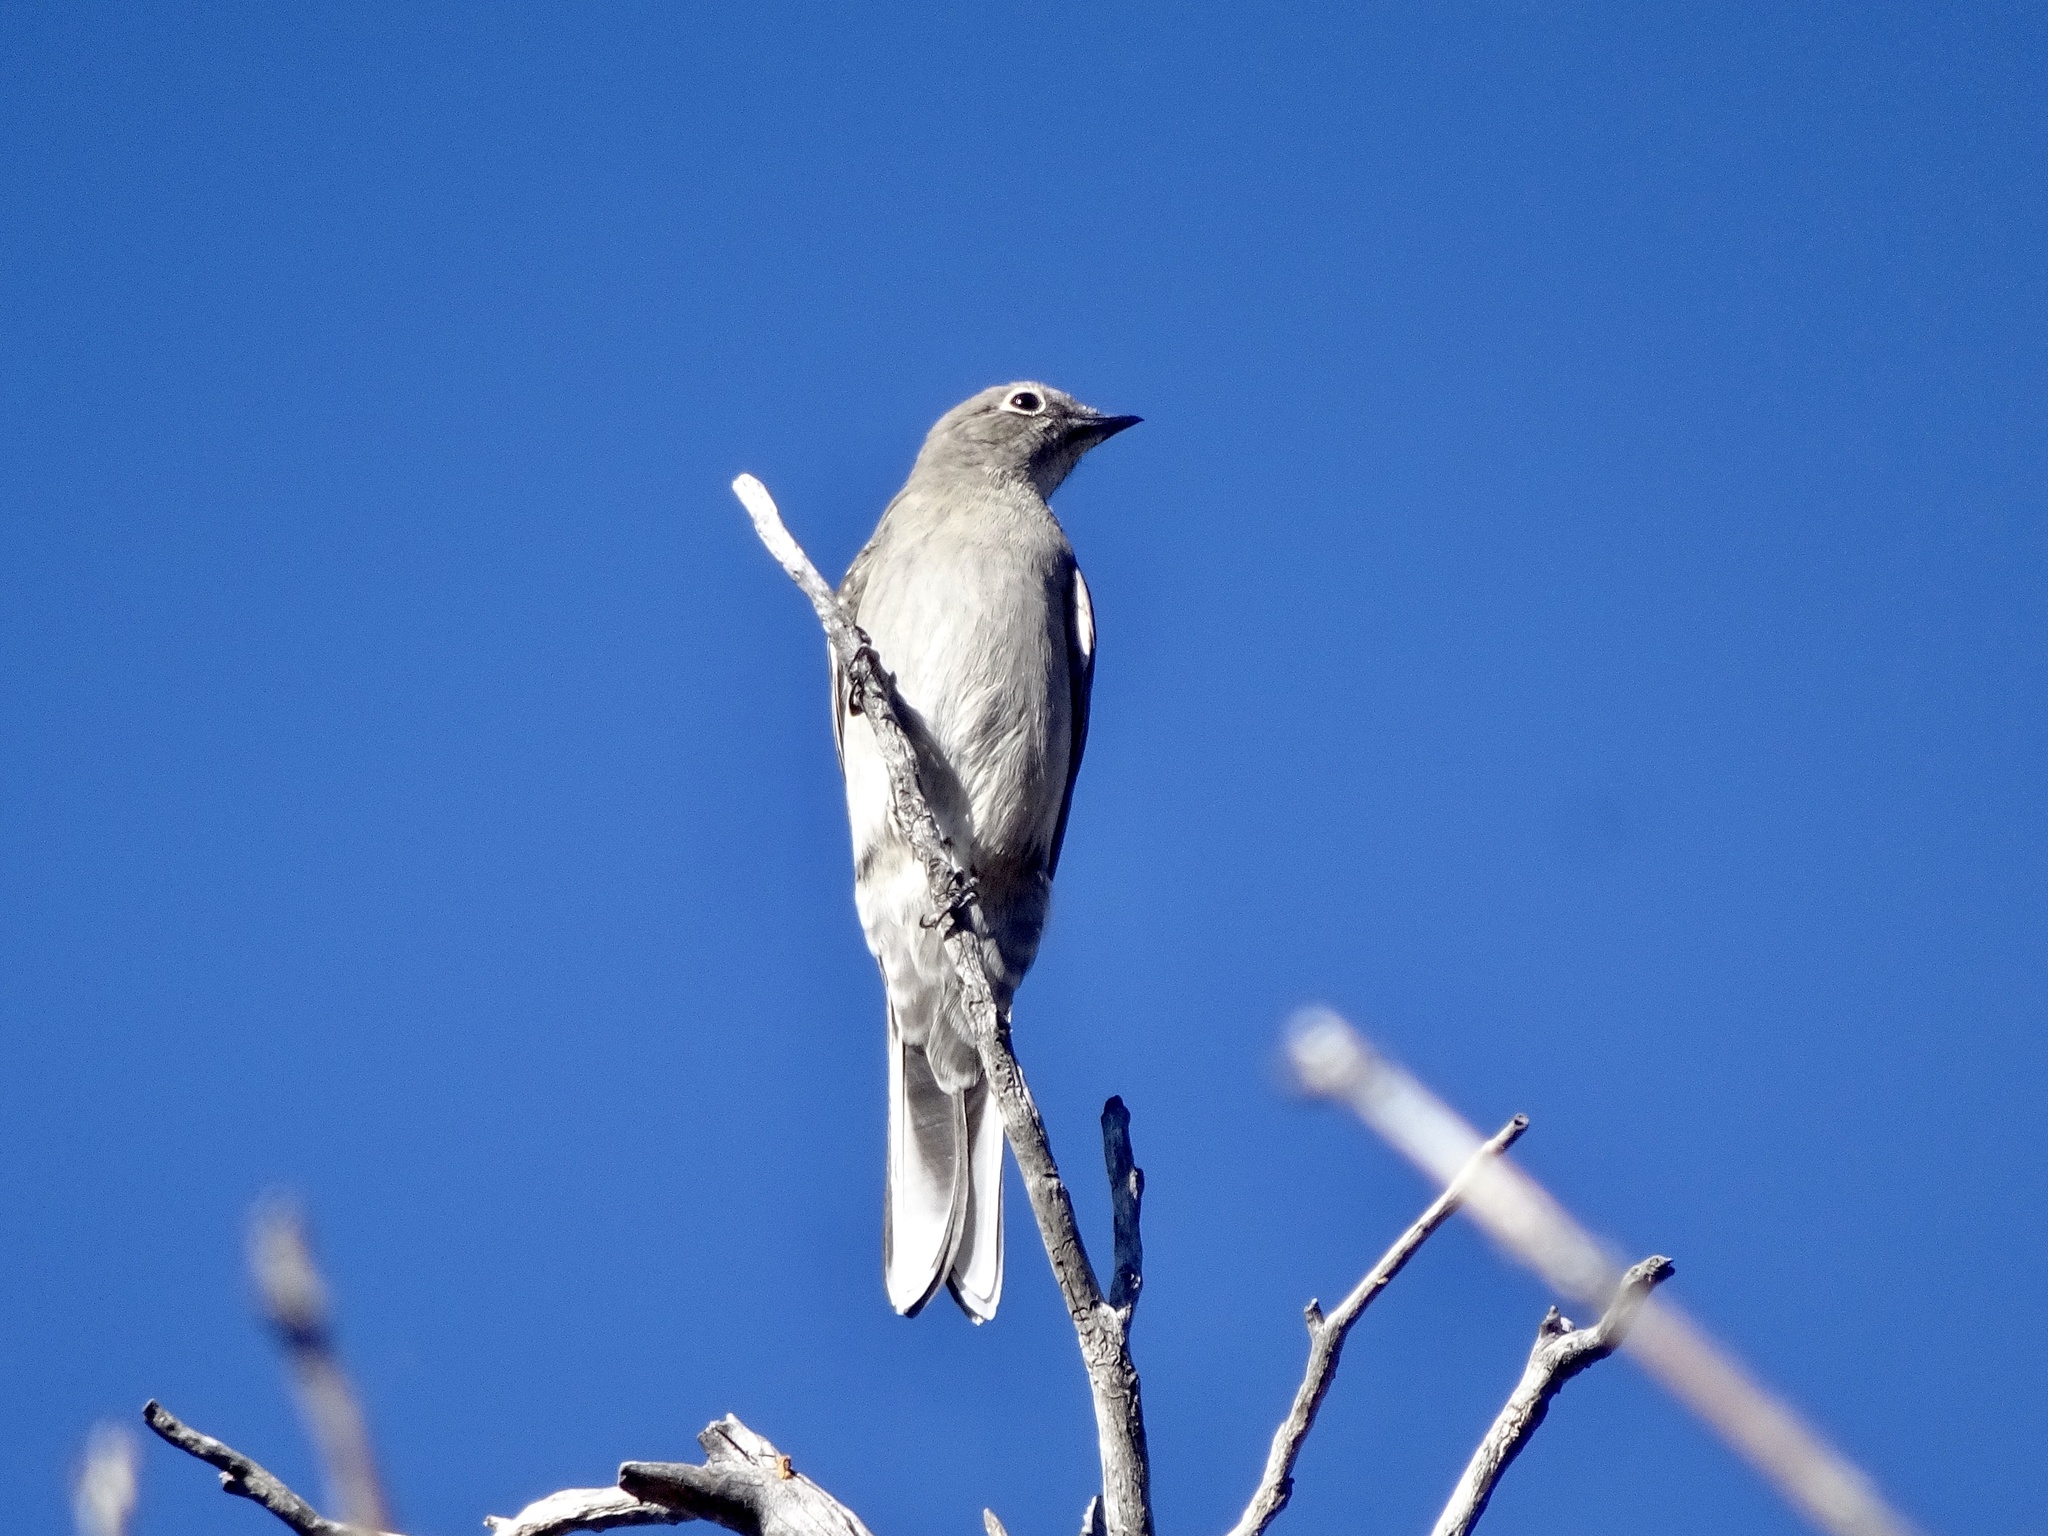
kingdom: Animalia
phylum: Chordata
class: Aves
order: Passeriformes
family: Turdidae
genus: Myadestes
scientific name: Myadestes townsendi
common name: Townsend's solitaire
